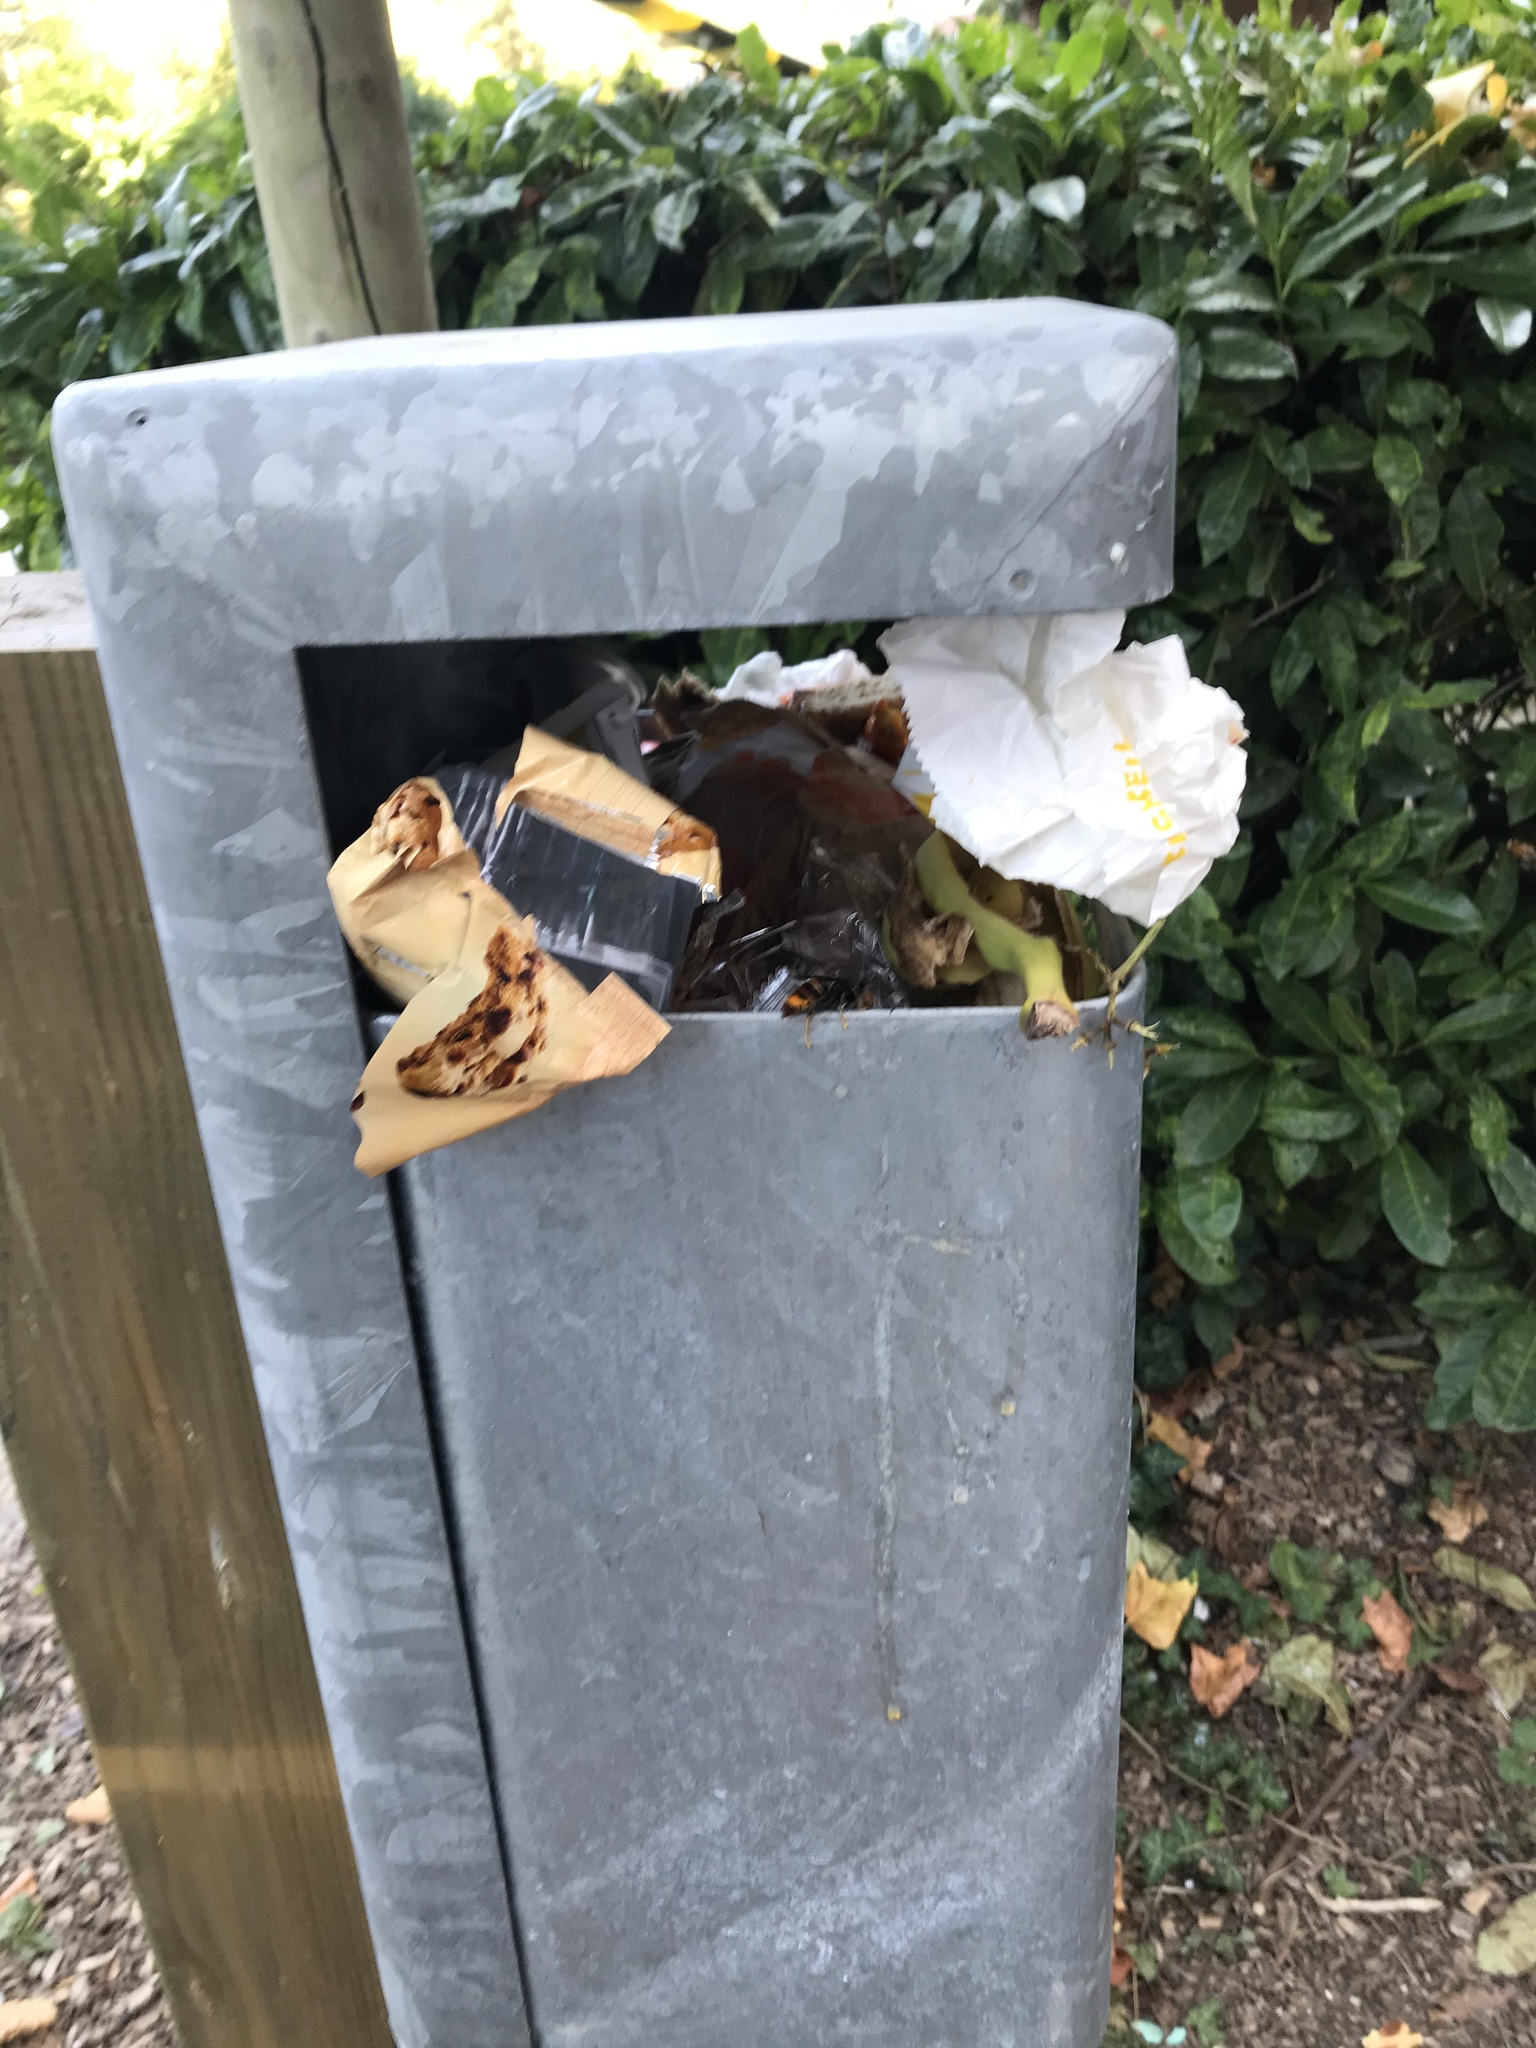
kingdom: Animalia
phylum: Arthropoda
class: Insecta
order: Hymenoptera
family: Vespidae
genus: Vespa
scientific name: Vespa velutina
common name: Asian hornet
